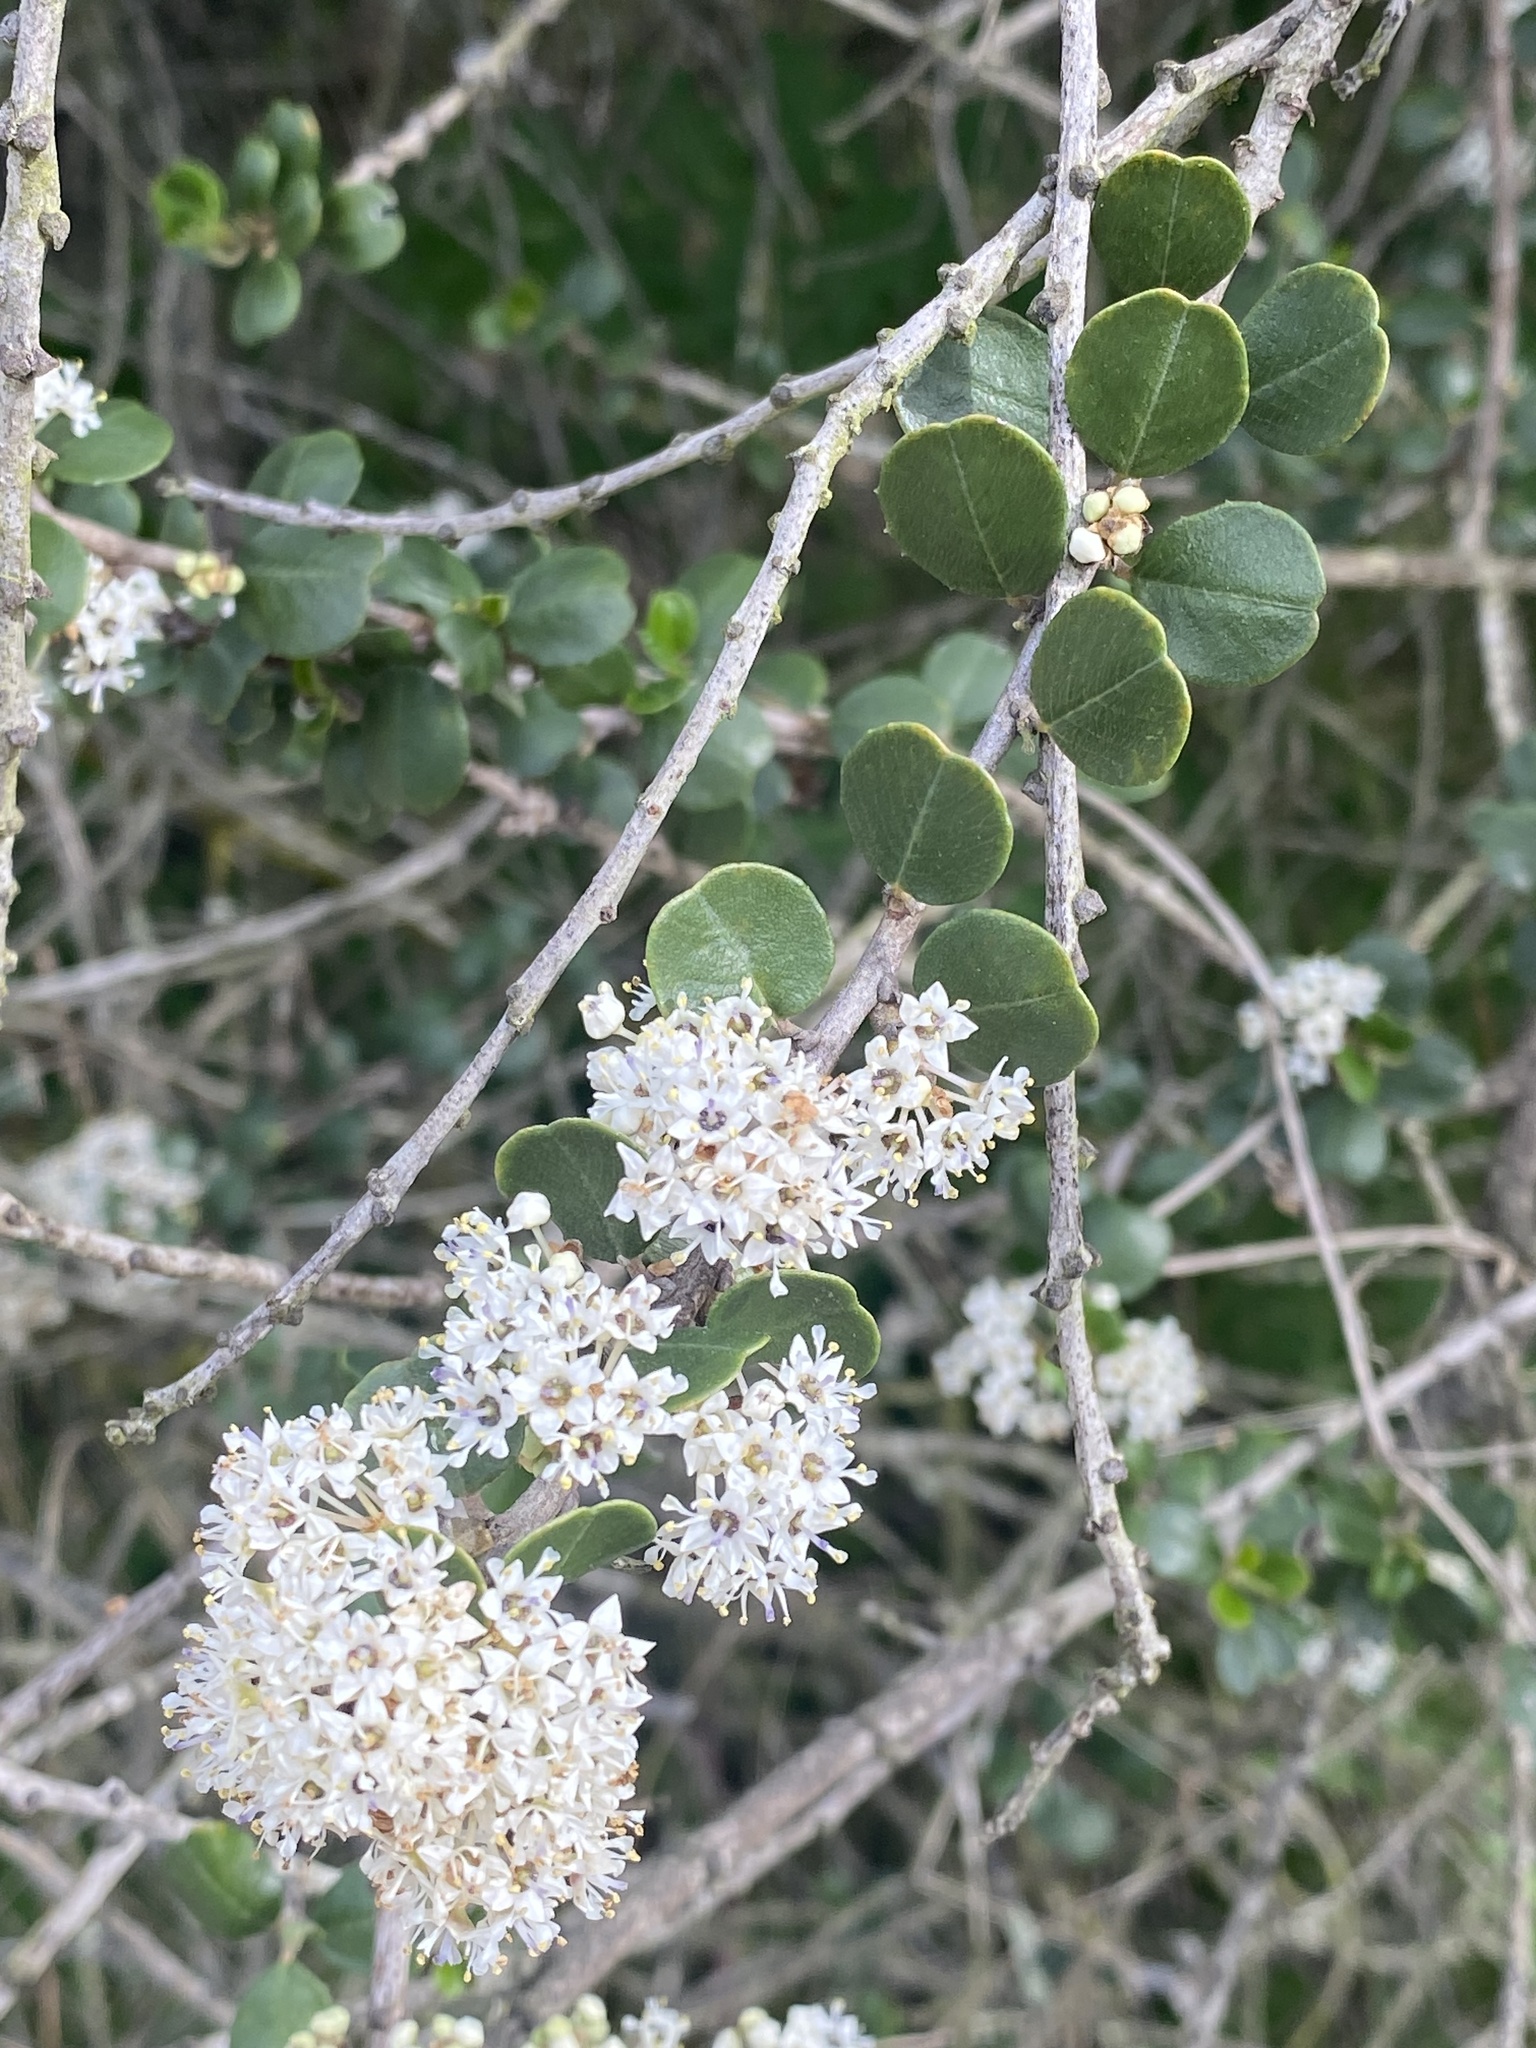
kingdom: Plantae
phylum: Tracheophyta
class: Magnoliopsida
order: Rosales
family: Rhamnaceae
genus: Ceanothus
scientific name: Ceanothus verrucosus
